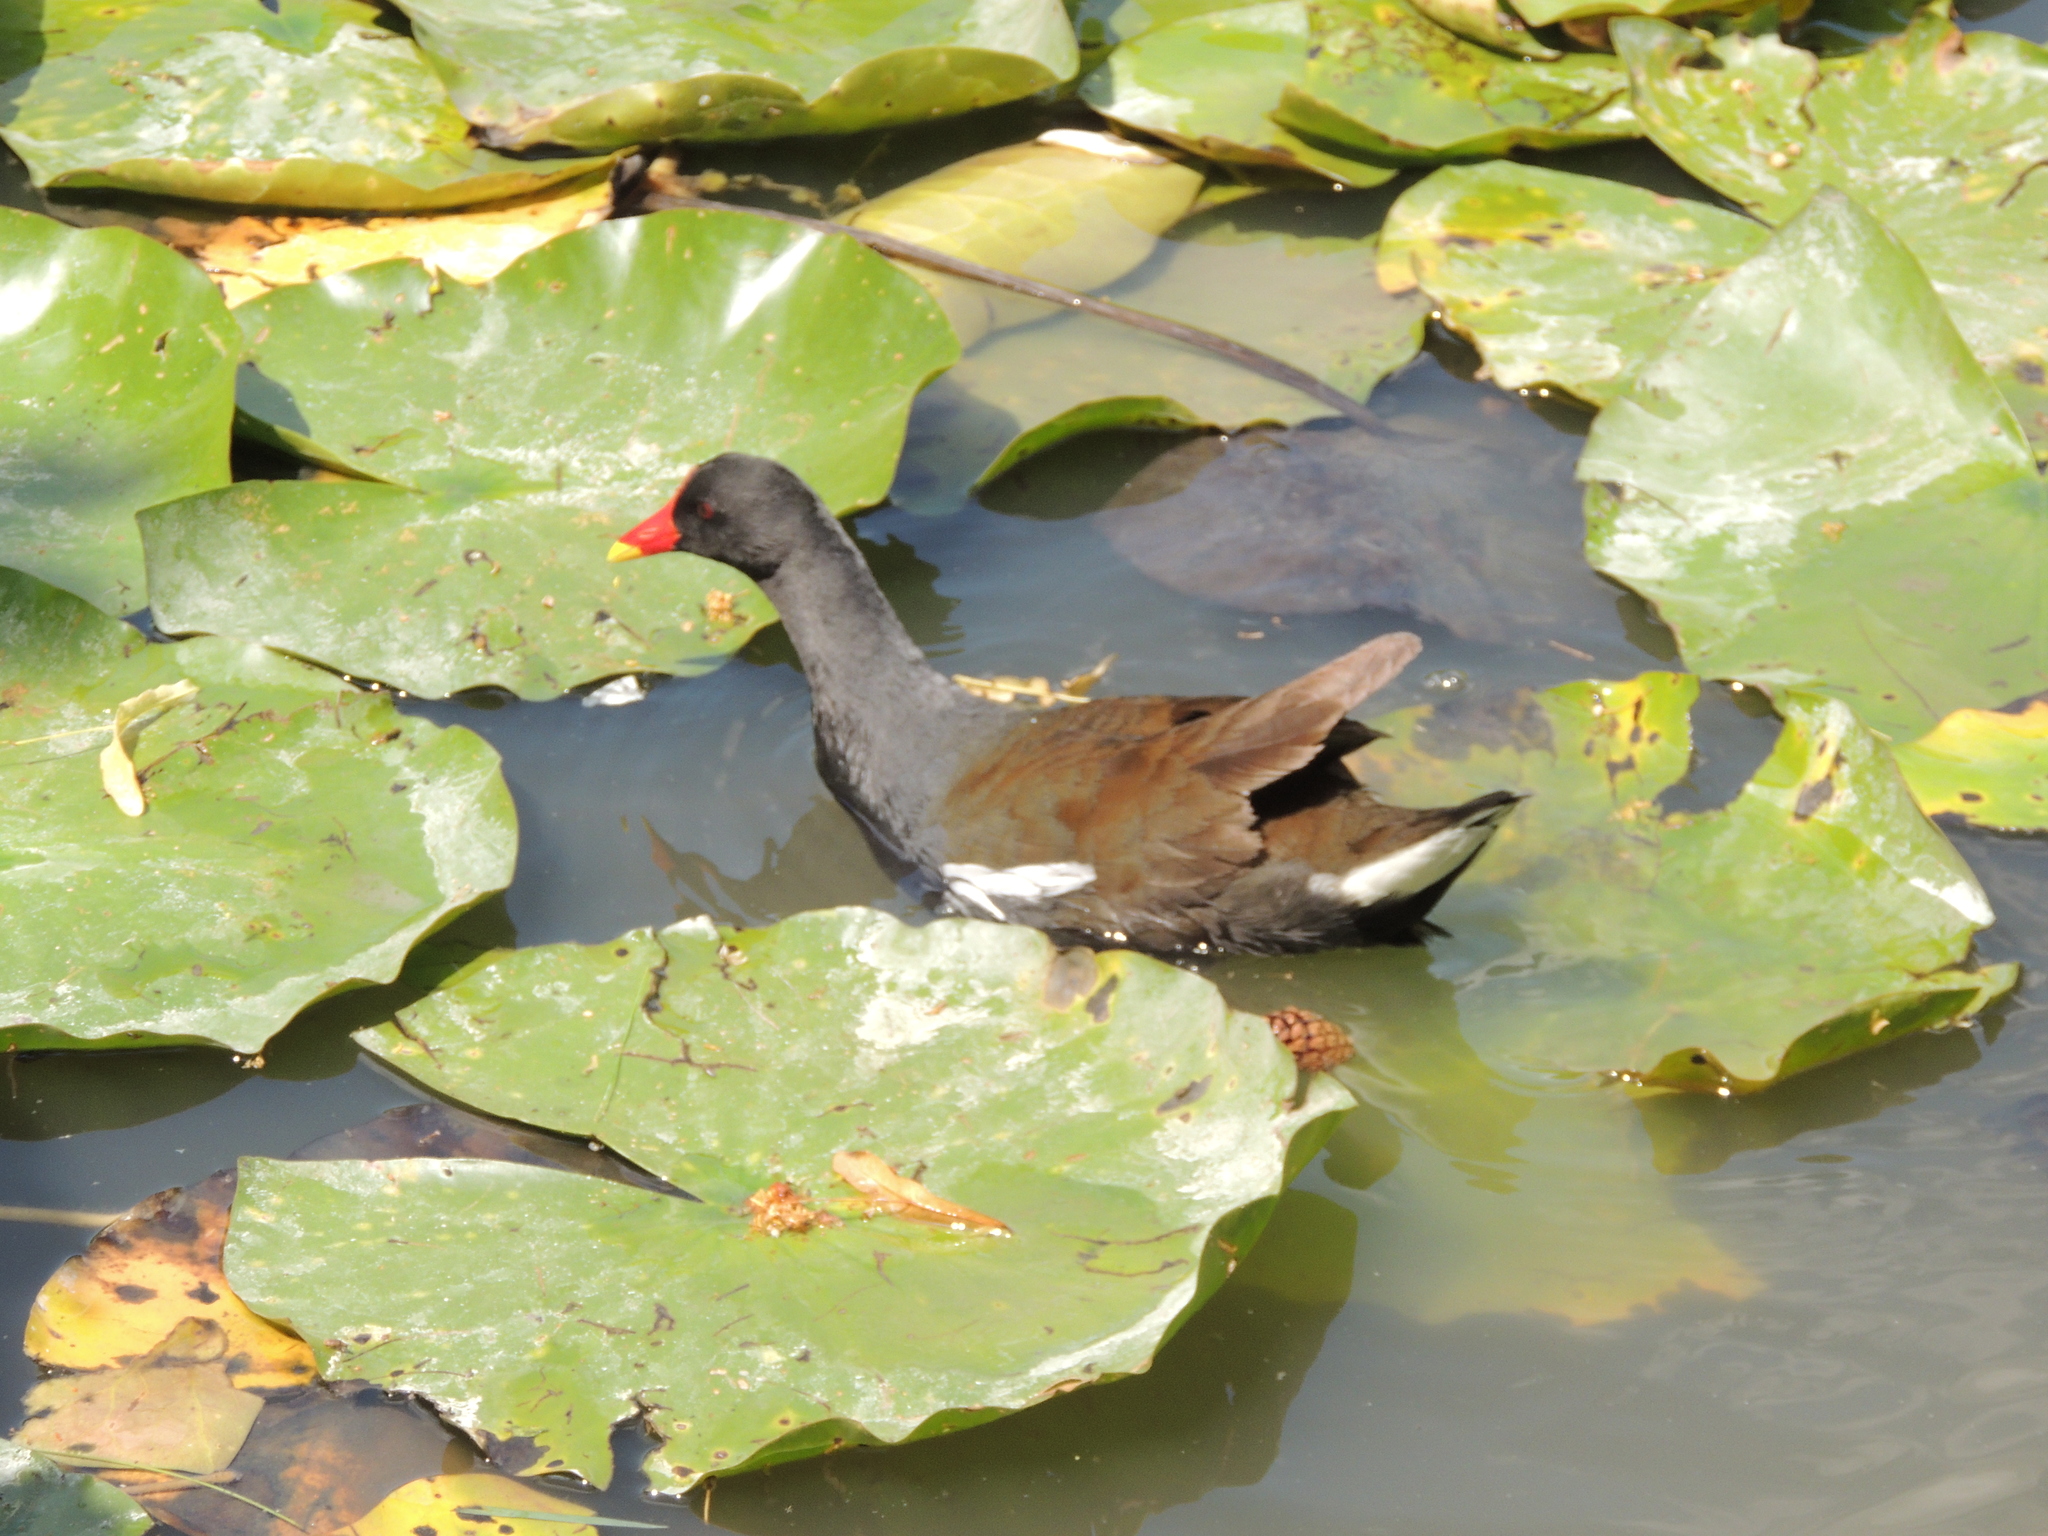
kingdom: Animalia
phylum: Chordata
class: Aves
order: Gruiformes
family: Rallidae
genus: Gallinula
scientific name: Gallinula chloropus
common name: Common moorhen
